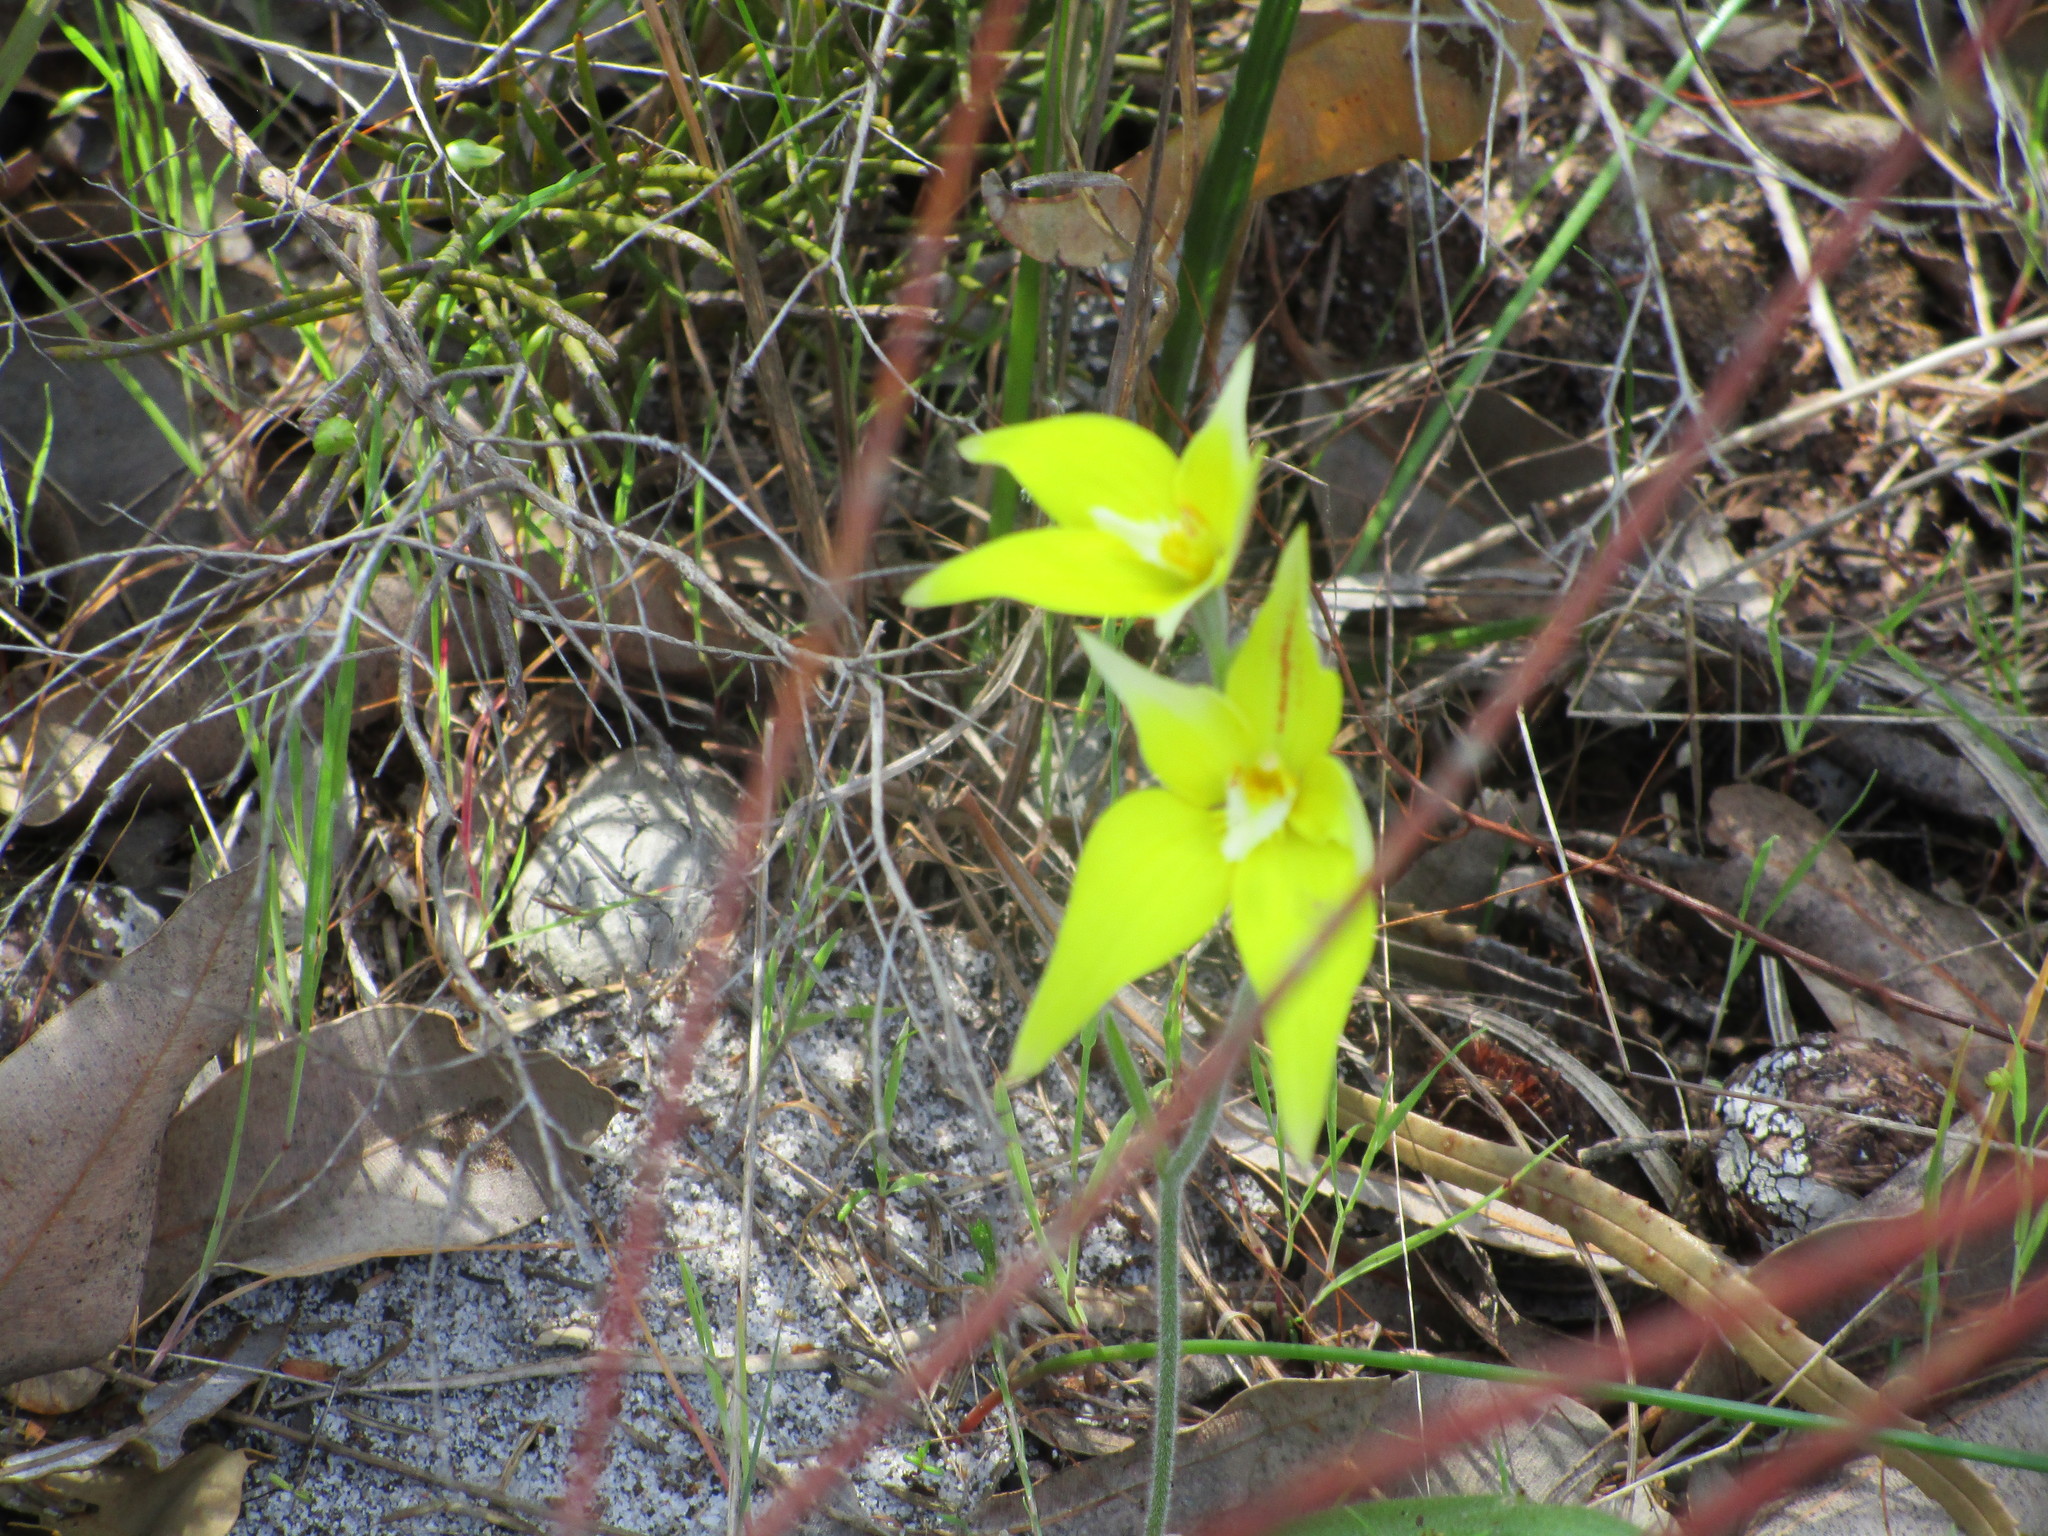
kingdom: Plantae
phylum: Tracheophyta
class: Liliopsida
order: Asparagales
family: Orchidaceae
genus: Caladenia
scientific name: Caladenia flava
